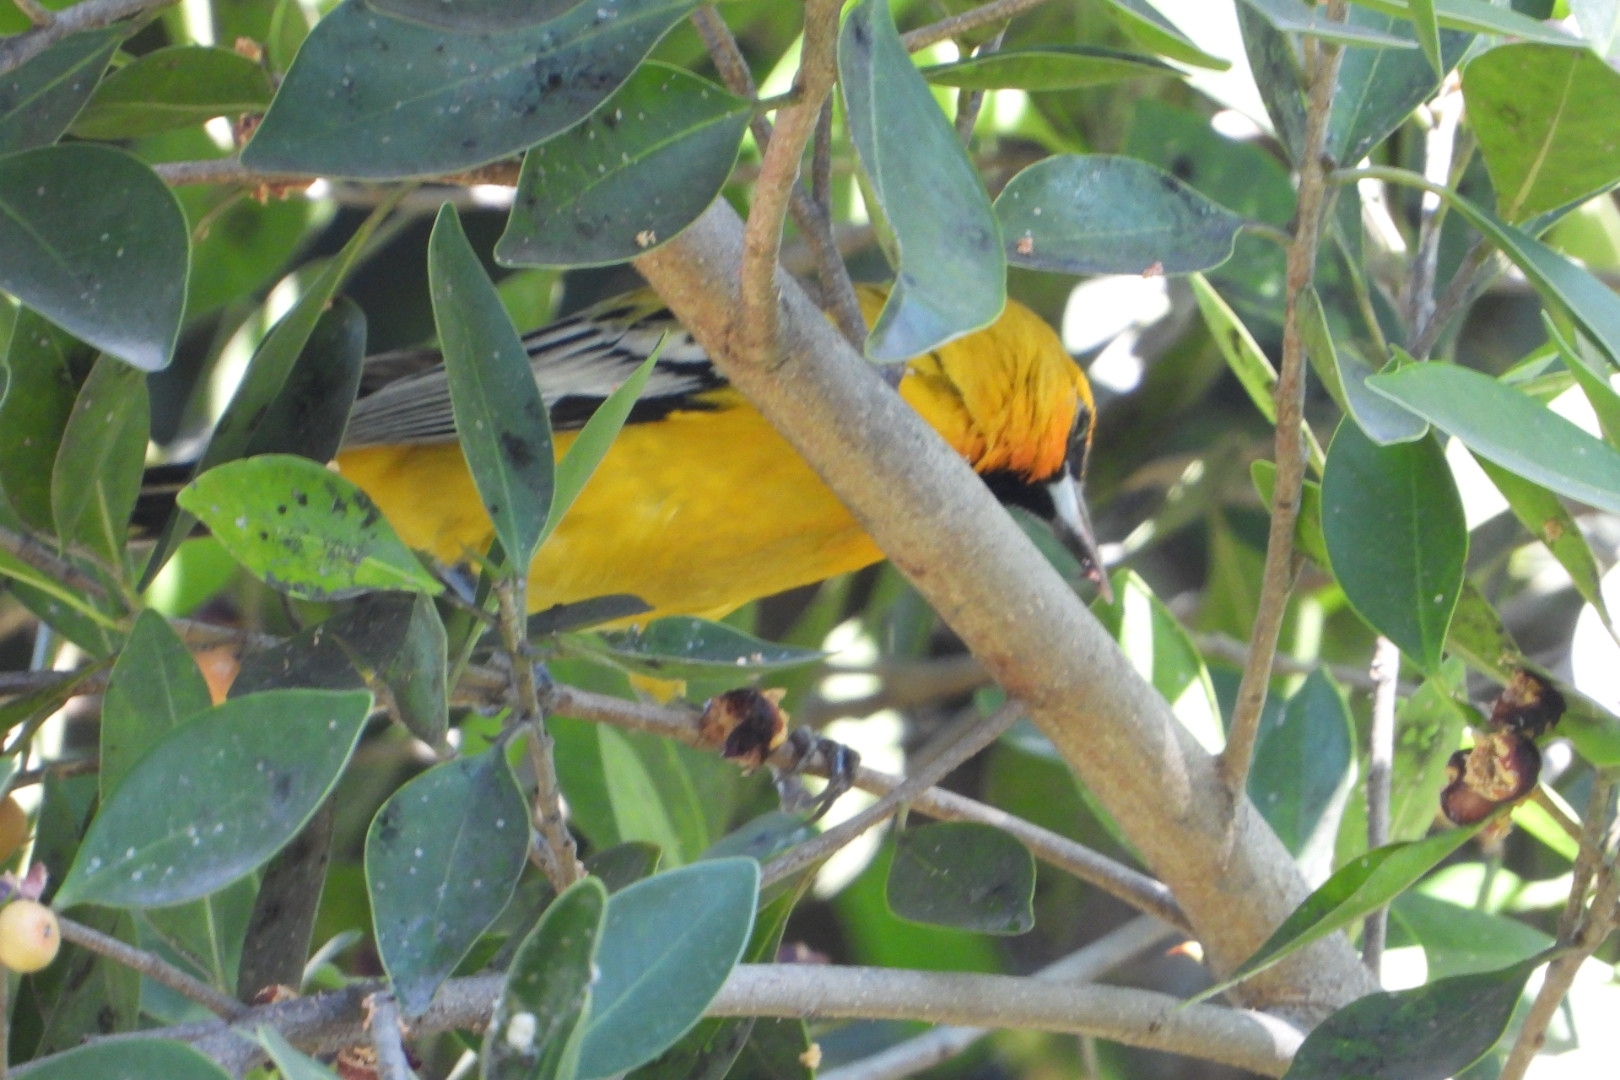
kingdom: Animalia
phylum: Chordata
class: Aves
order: Passeriformes
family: Icteridae
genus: Icterus
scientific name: Icterus pustulatus
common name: Streak-backed oriole
